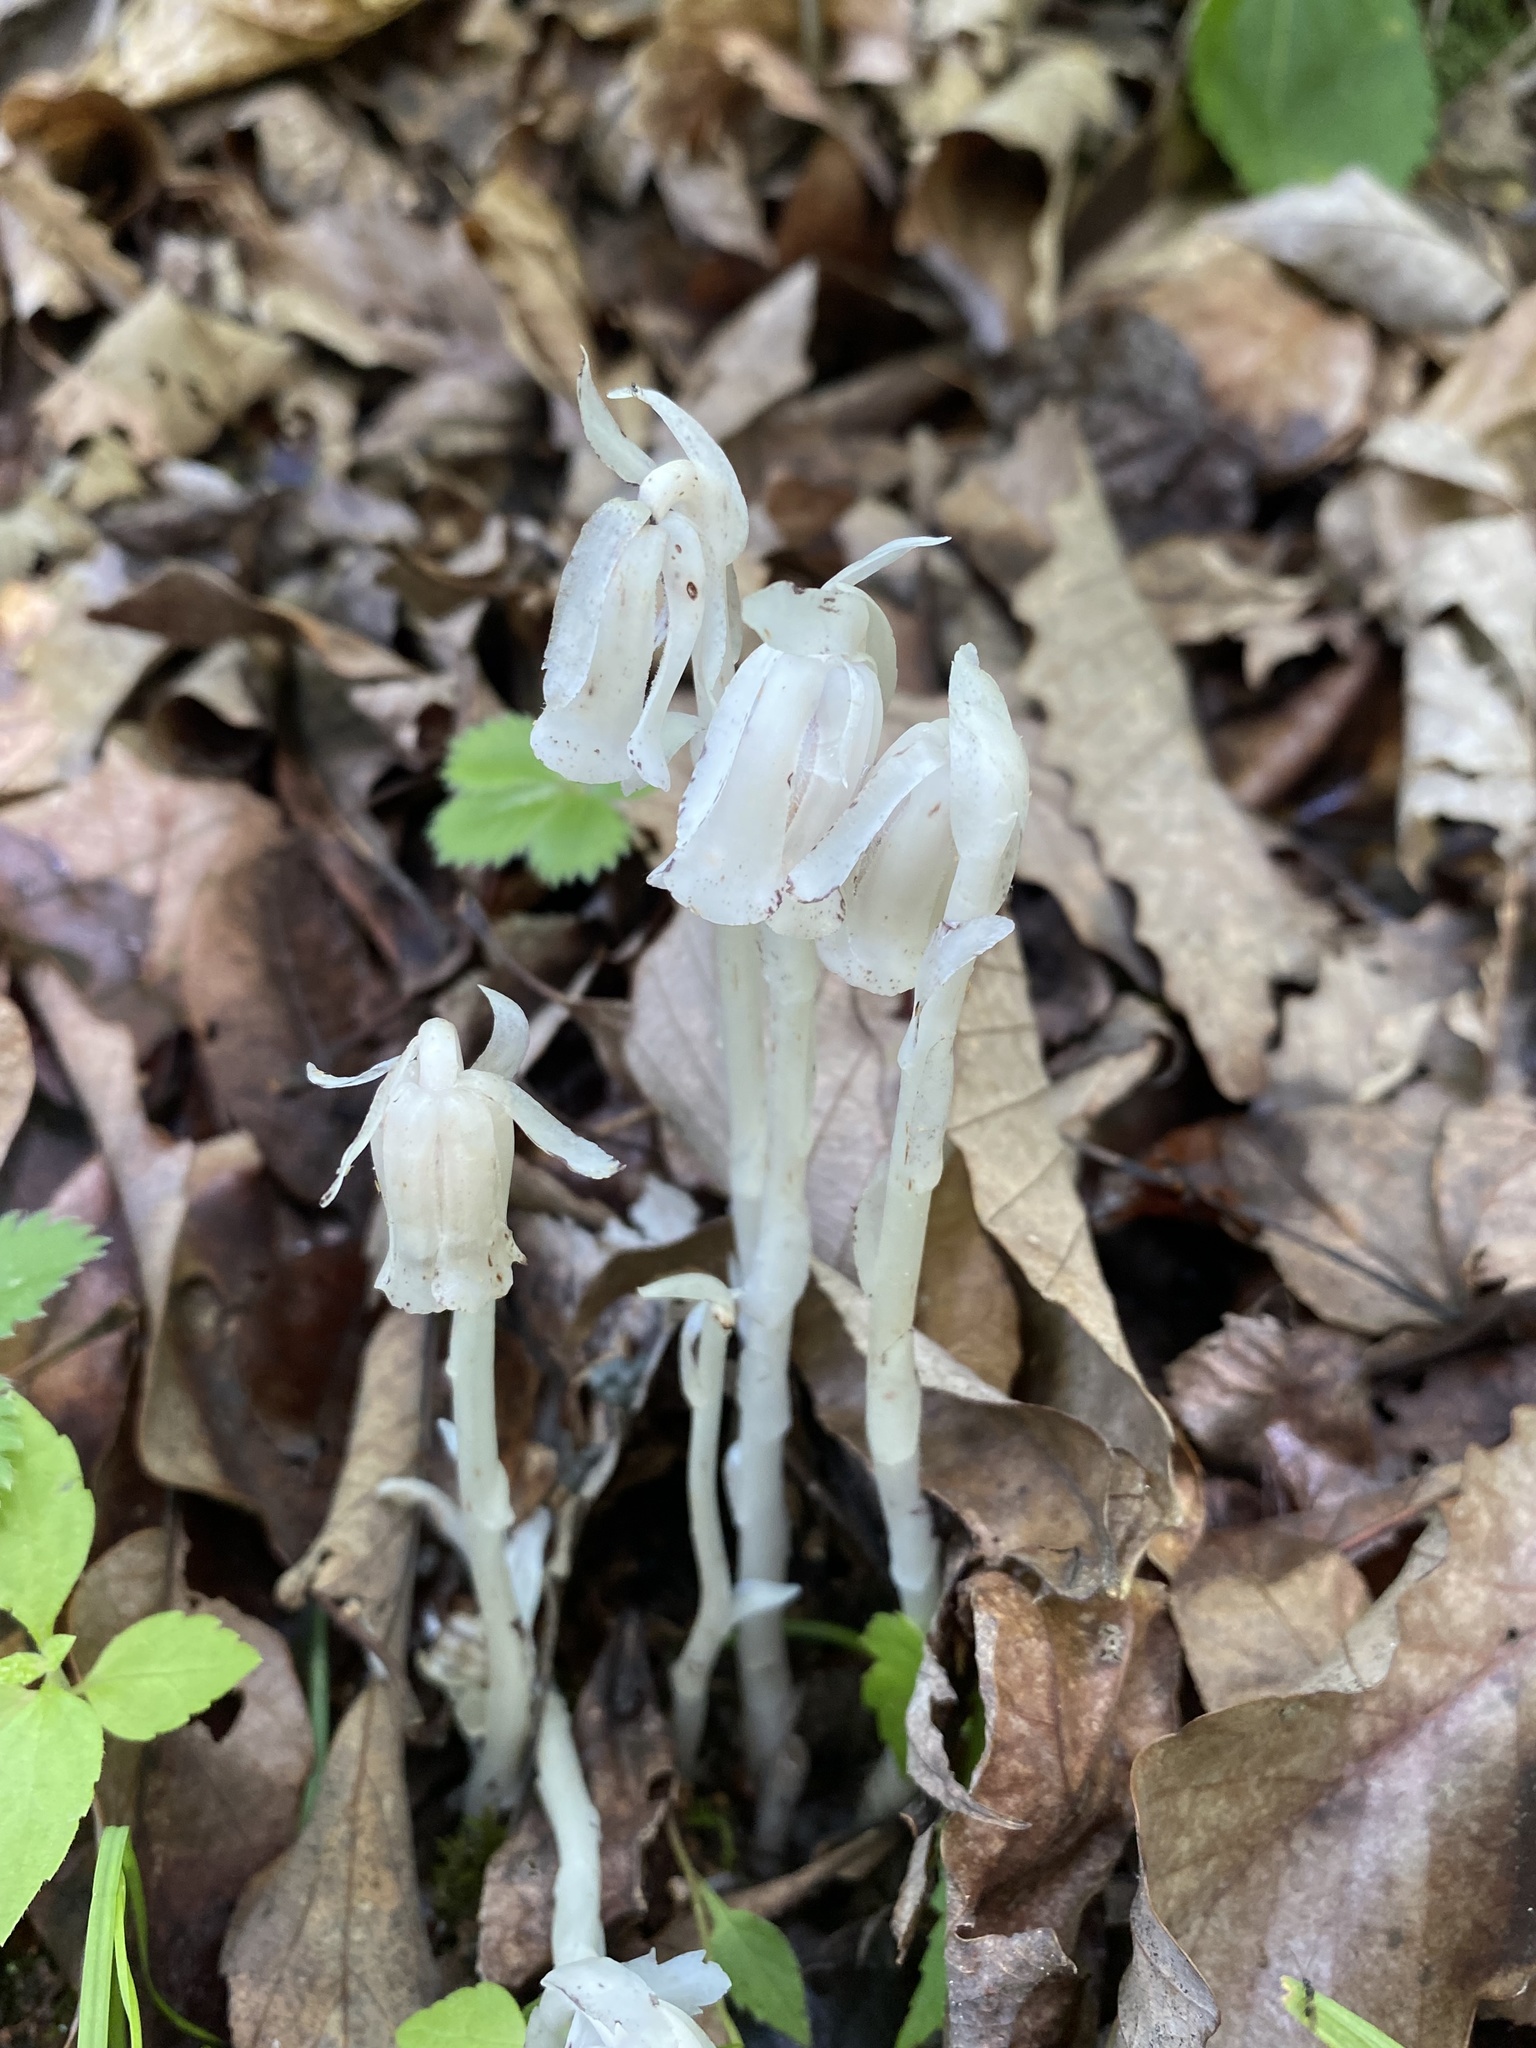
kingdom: Plantae
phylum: Tracheophyta
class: Magnoliopsida
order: Ericales
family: Ericaceae
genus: Monotropa
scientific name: Monotropa uniflora
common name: Convulsion root
